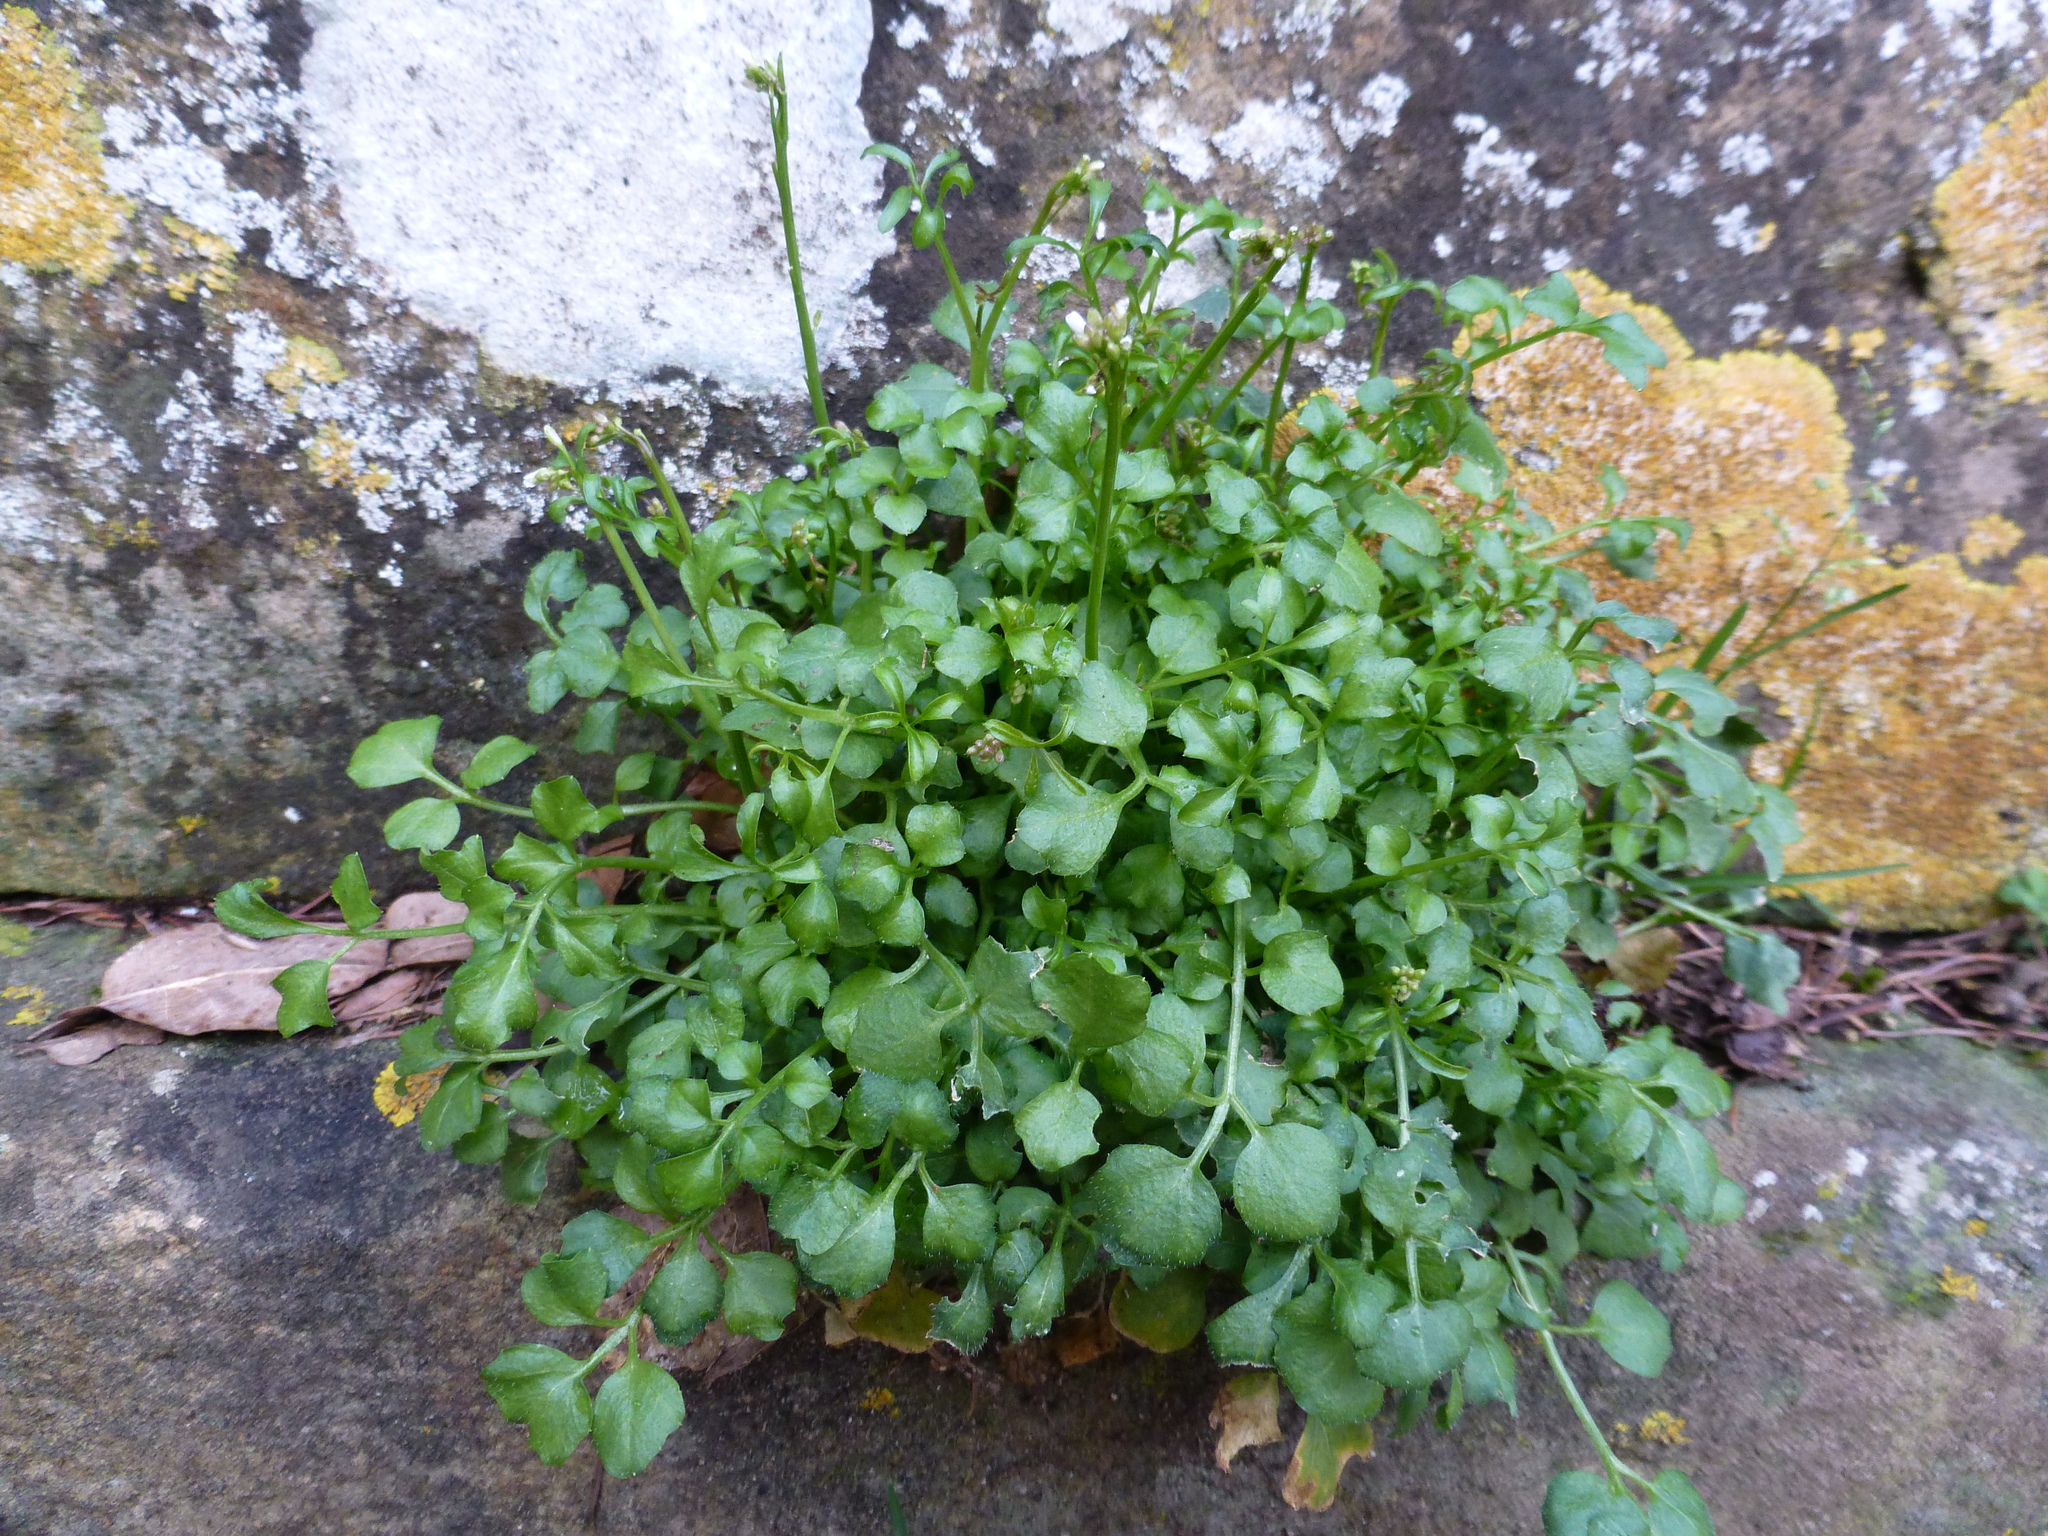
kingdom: Plantae
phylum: Tracheophyta
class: Magnoliopsida
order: Brassicales
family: Brassicaceae
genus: Cardamine
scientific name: Cardamine hirsuta
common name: Hairy bittercress
